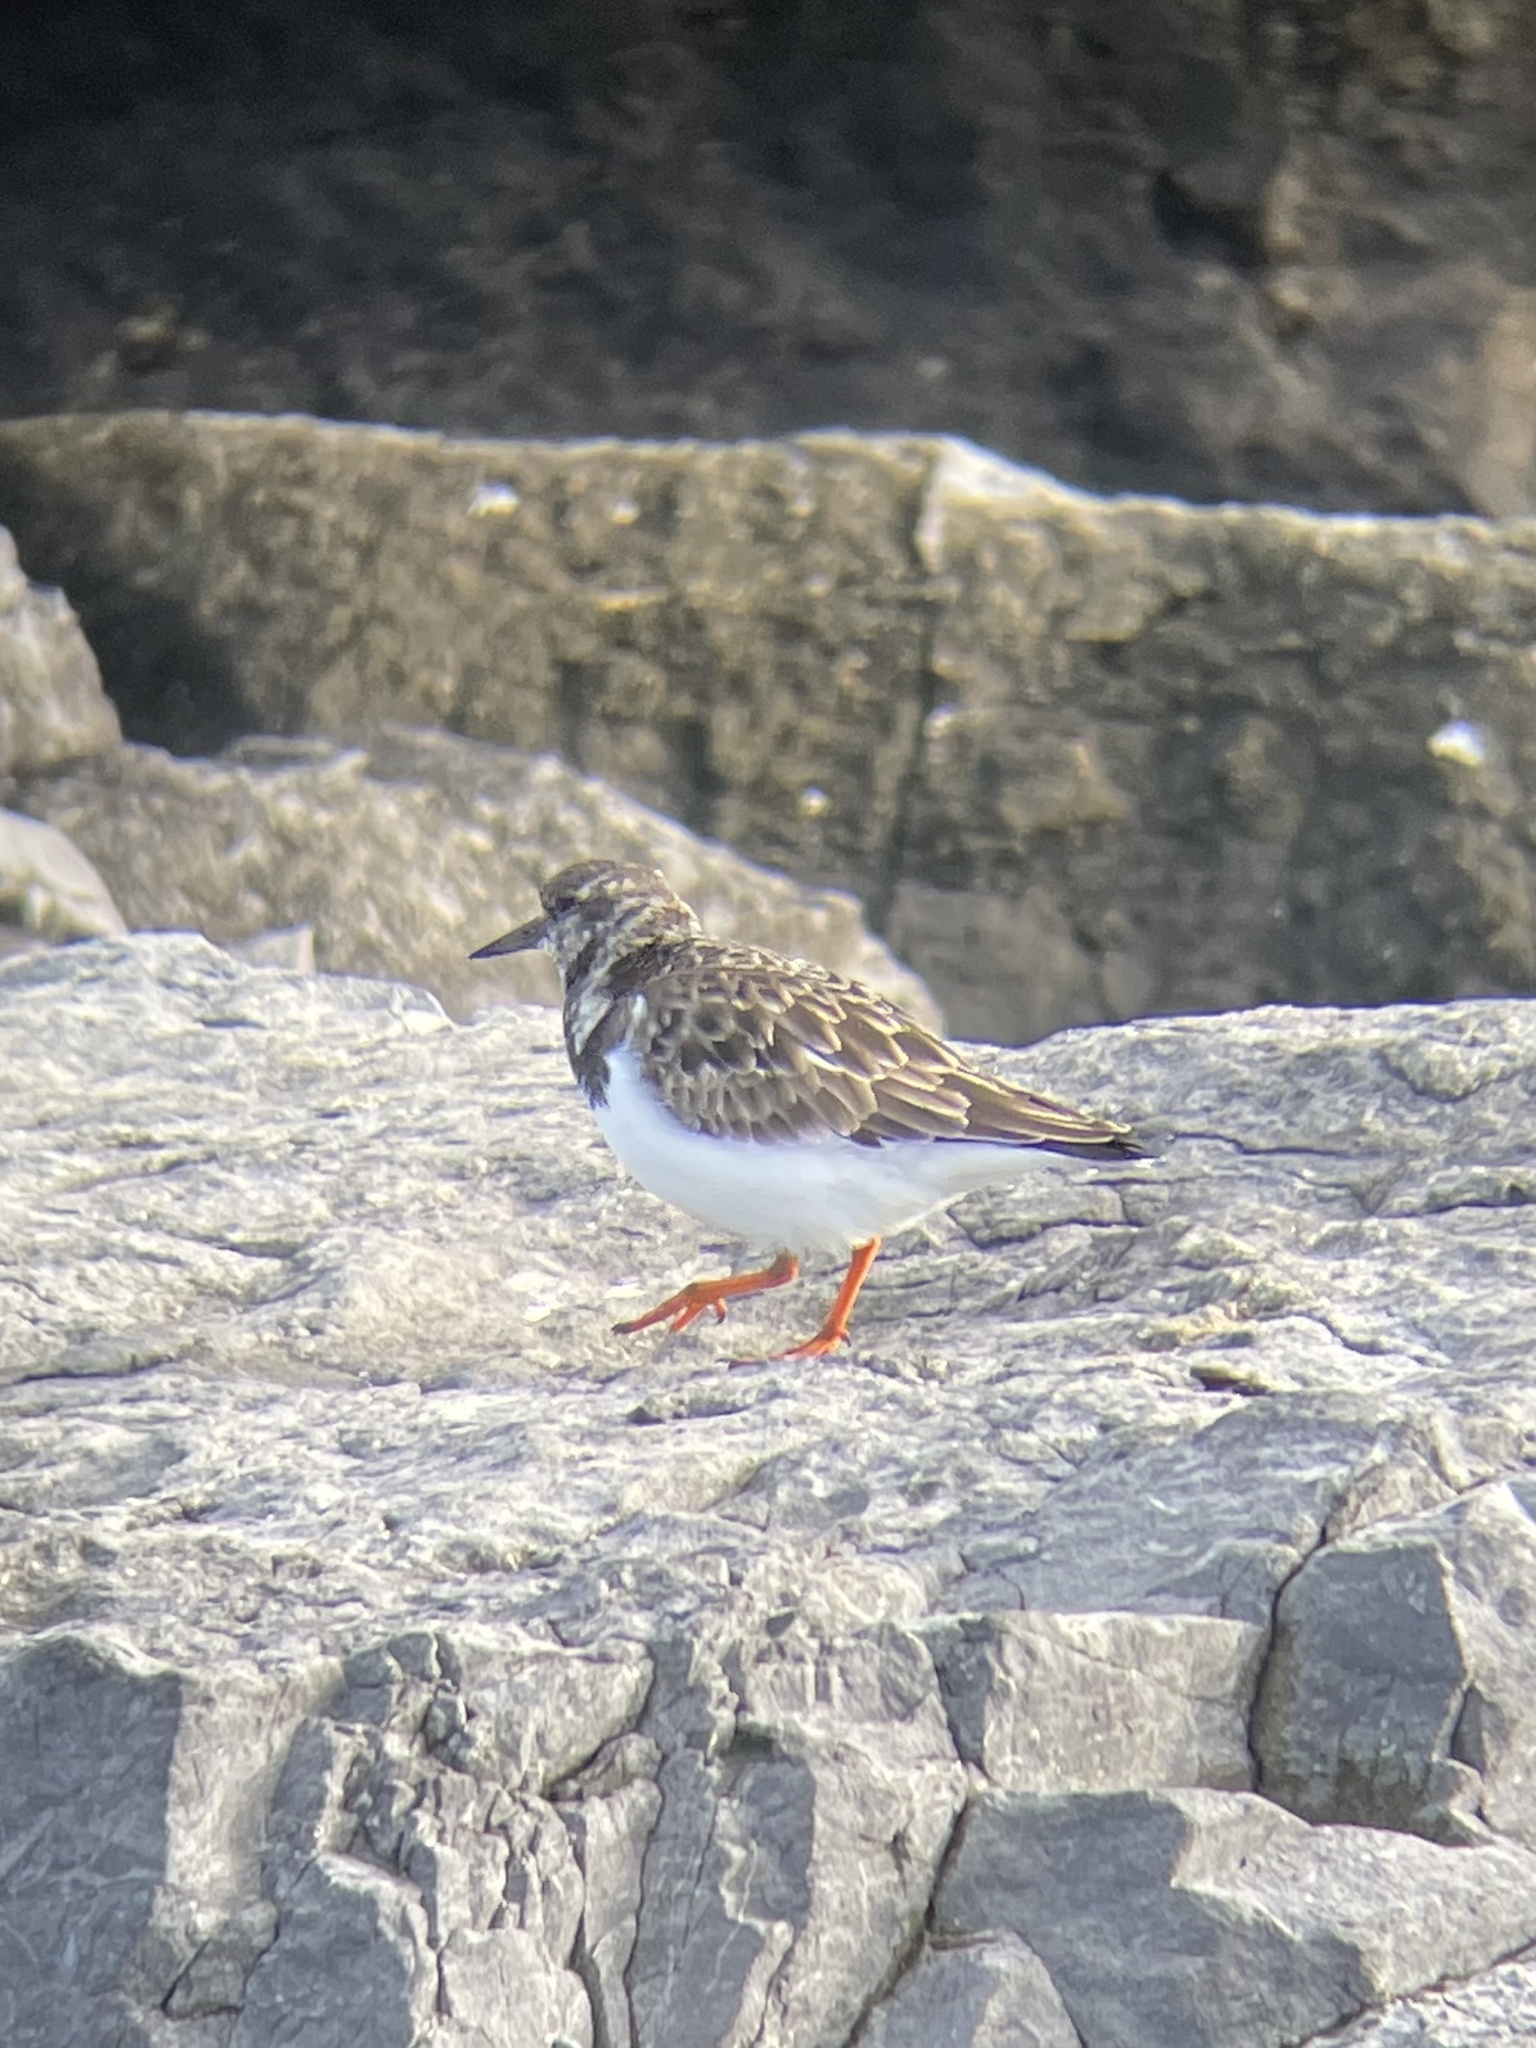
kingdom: Animalia
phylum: Chordata
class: Aves
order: Charadriiformes
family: Scolopacidae
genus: Arenaria
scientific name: Arenaria interpres
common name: Ruddy turnstone
